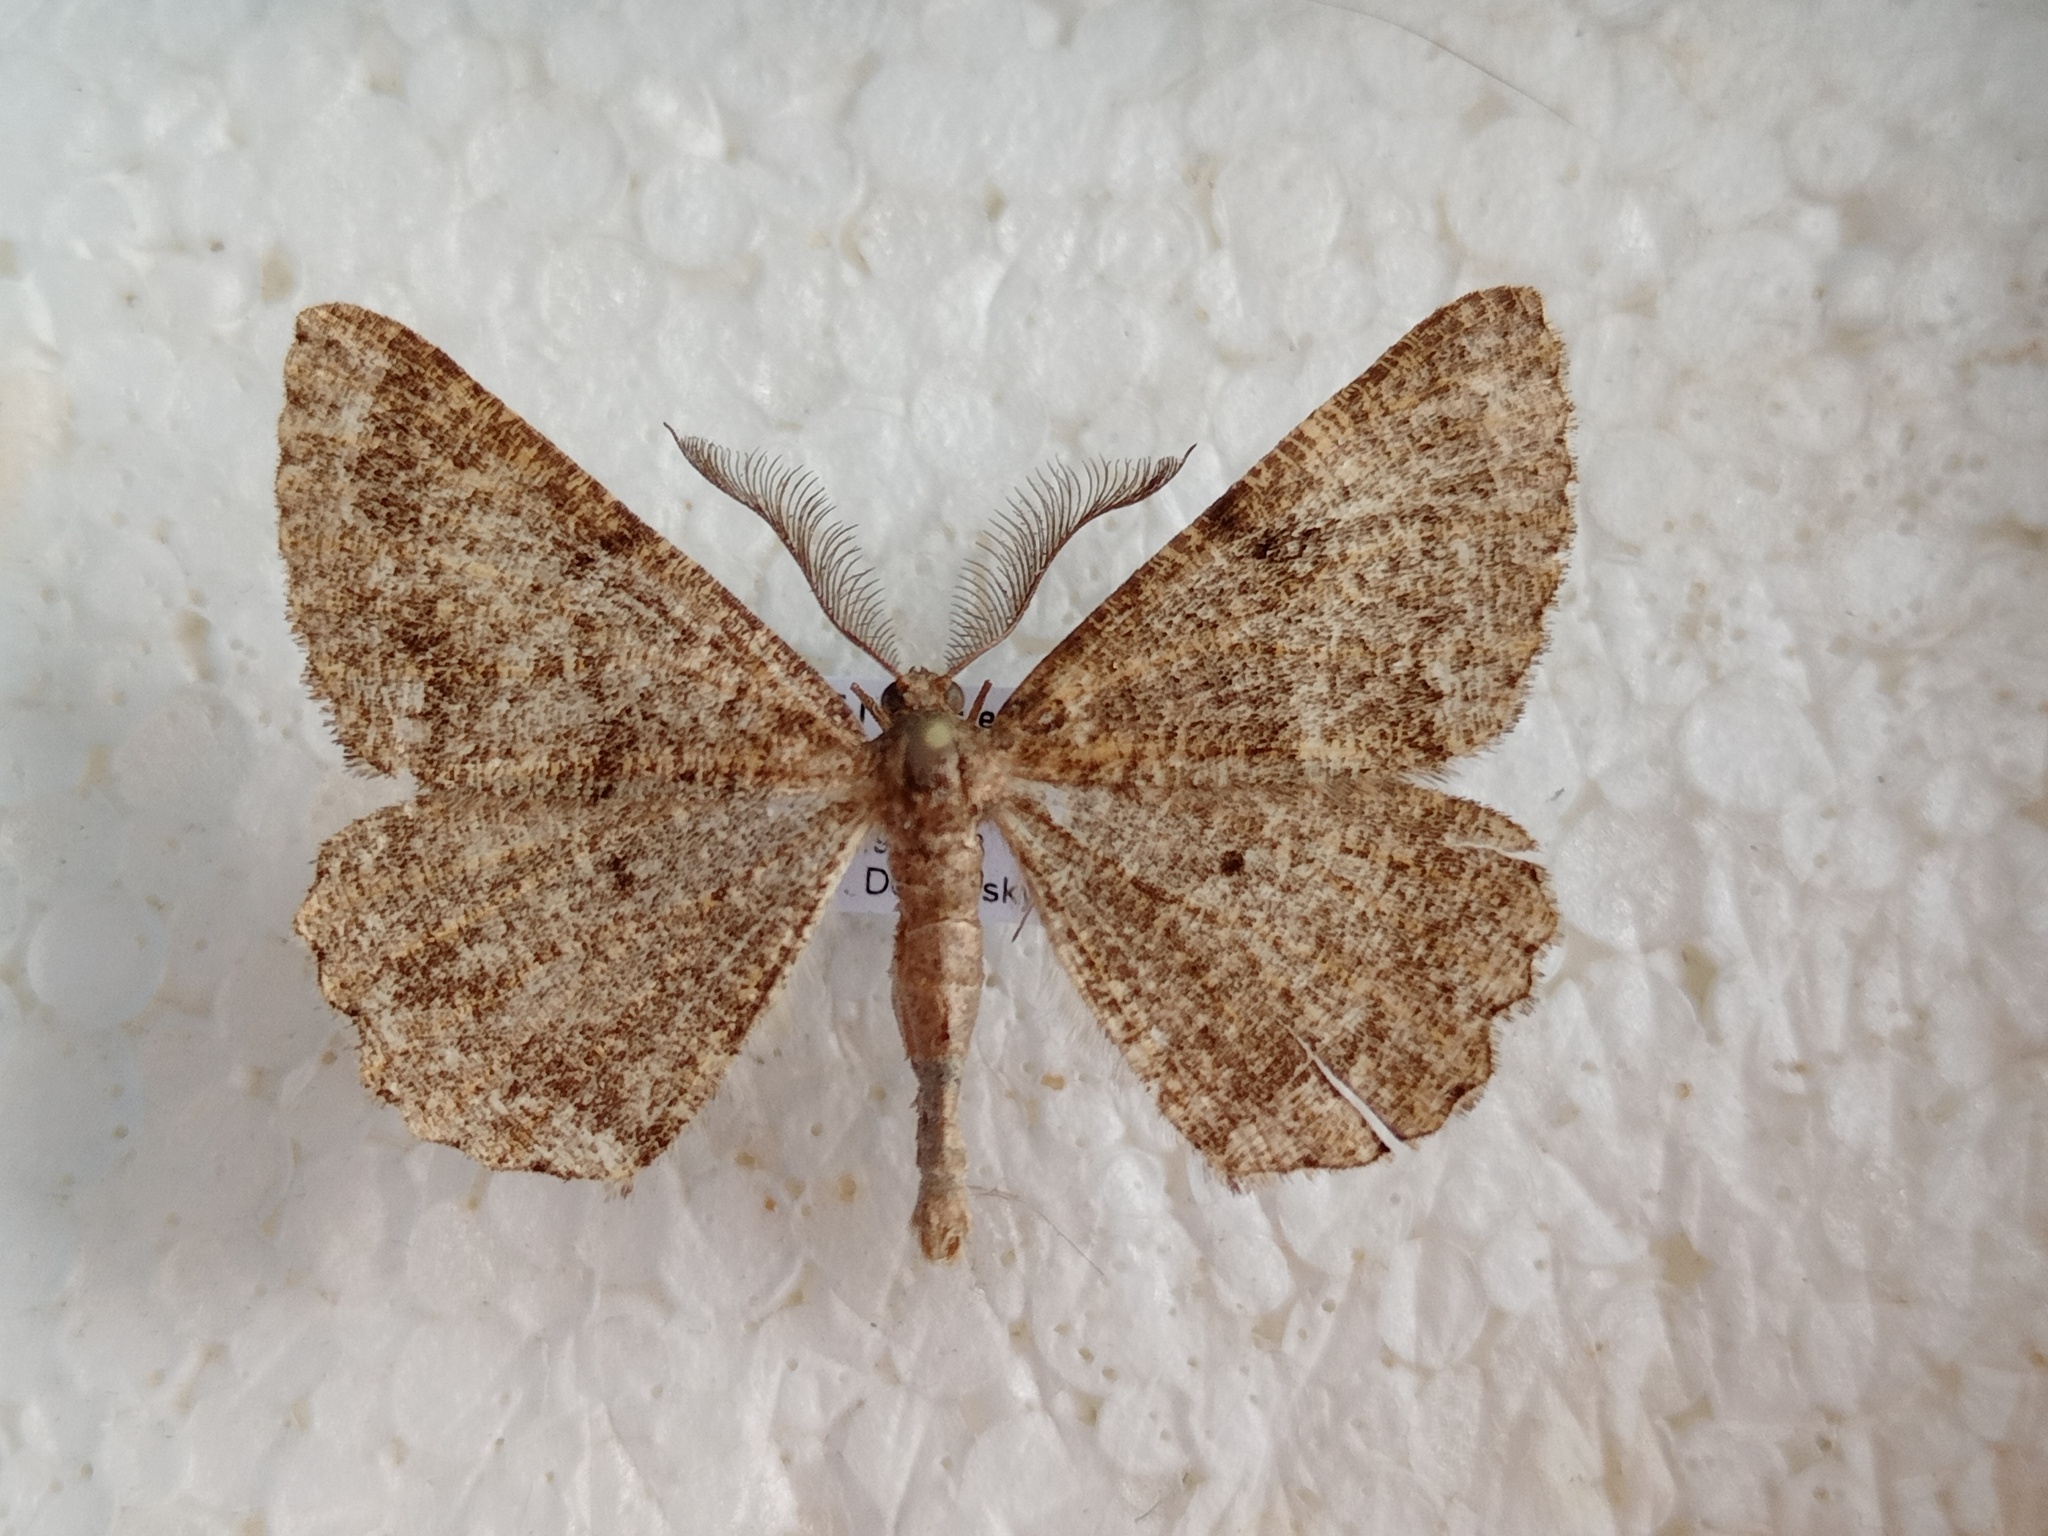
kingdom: Animalia
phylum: Arthropoda
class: Insecta
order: Lepidoptera
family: Geometridae
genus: Selidosema
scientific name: Selidosema taeniolaria
